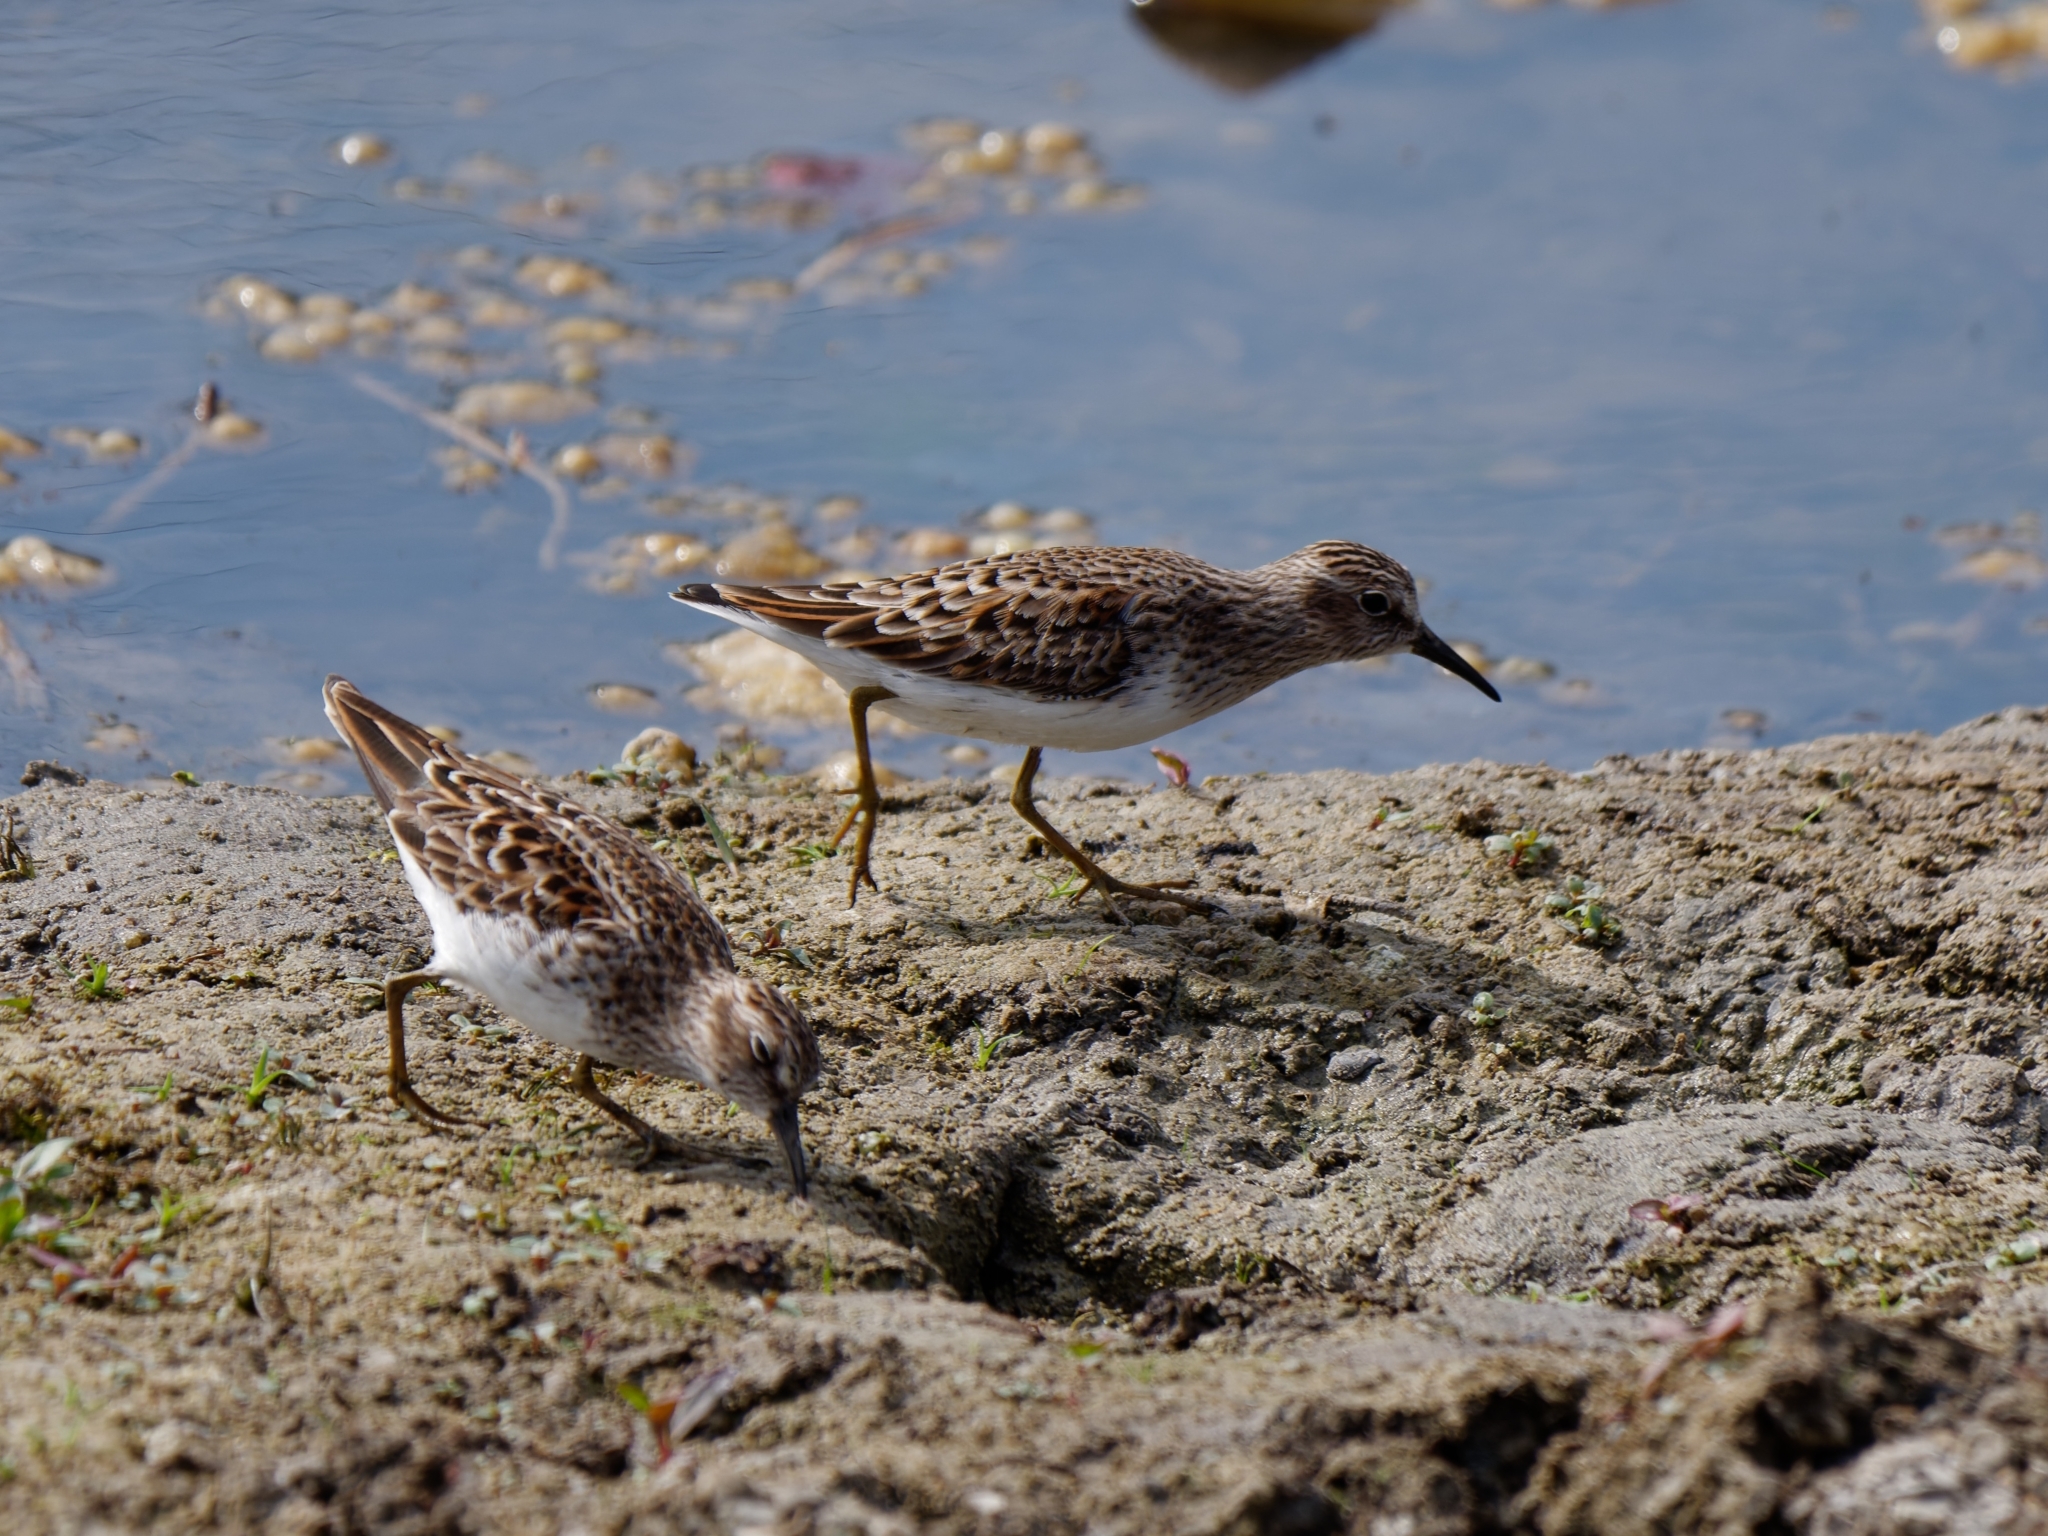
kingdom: Animalia
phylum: Chordata
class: Aves
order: Charadriiformes
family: Scolopacidae
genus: Calidris
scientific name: Calidris minutilla
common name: Least sandpiper
